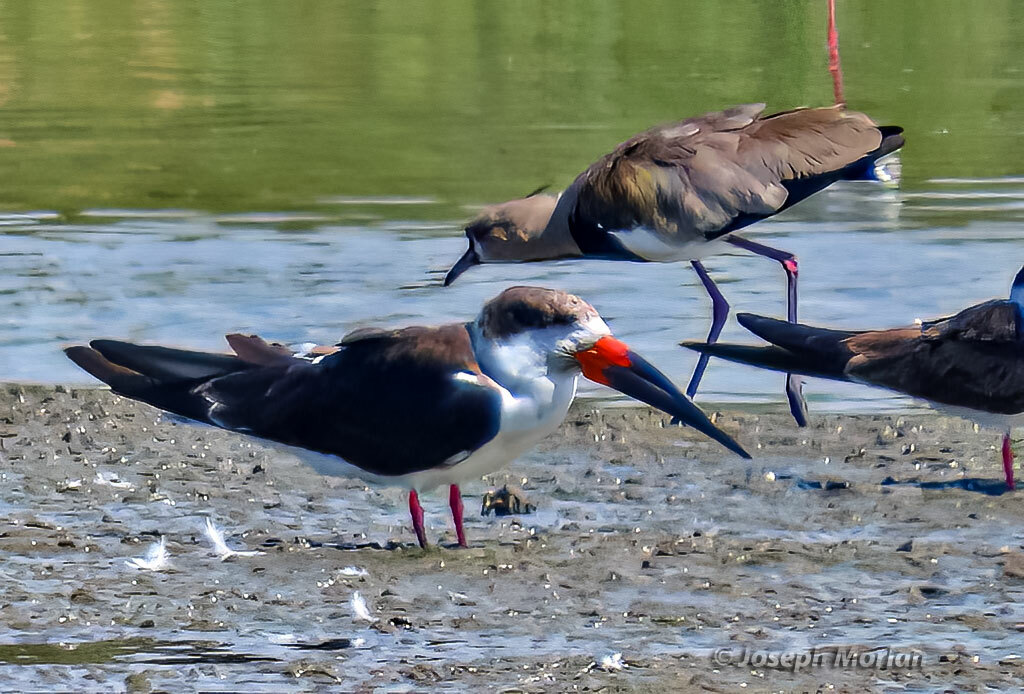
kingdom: Animalia
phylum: Chordata
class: Aves
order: Charadriiformes
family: Laridae
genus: Rynchops
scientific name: Rynchops niger
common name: Black skimmer
